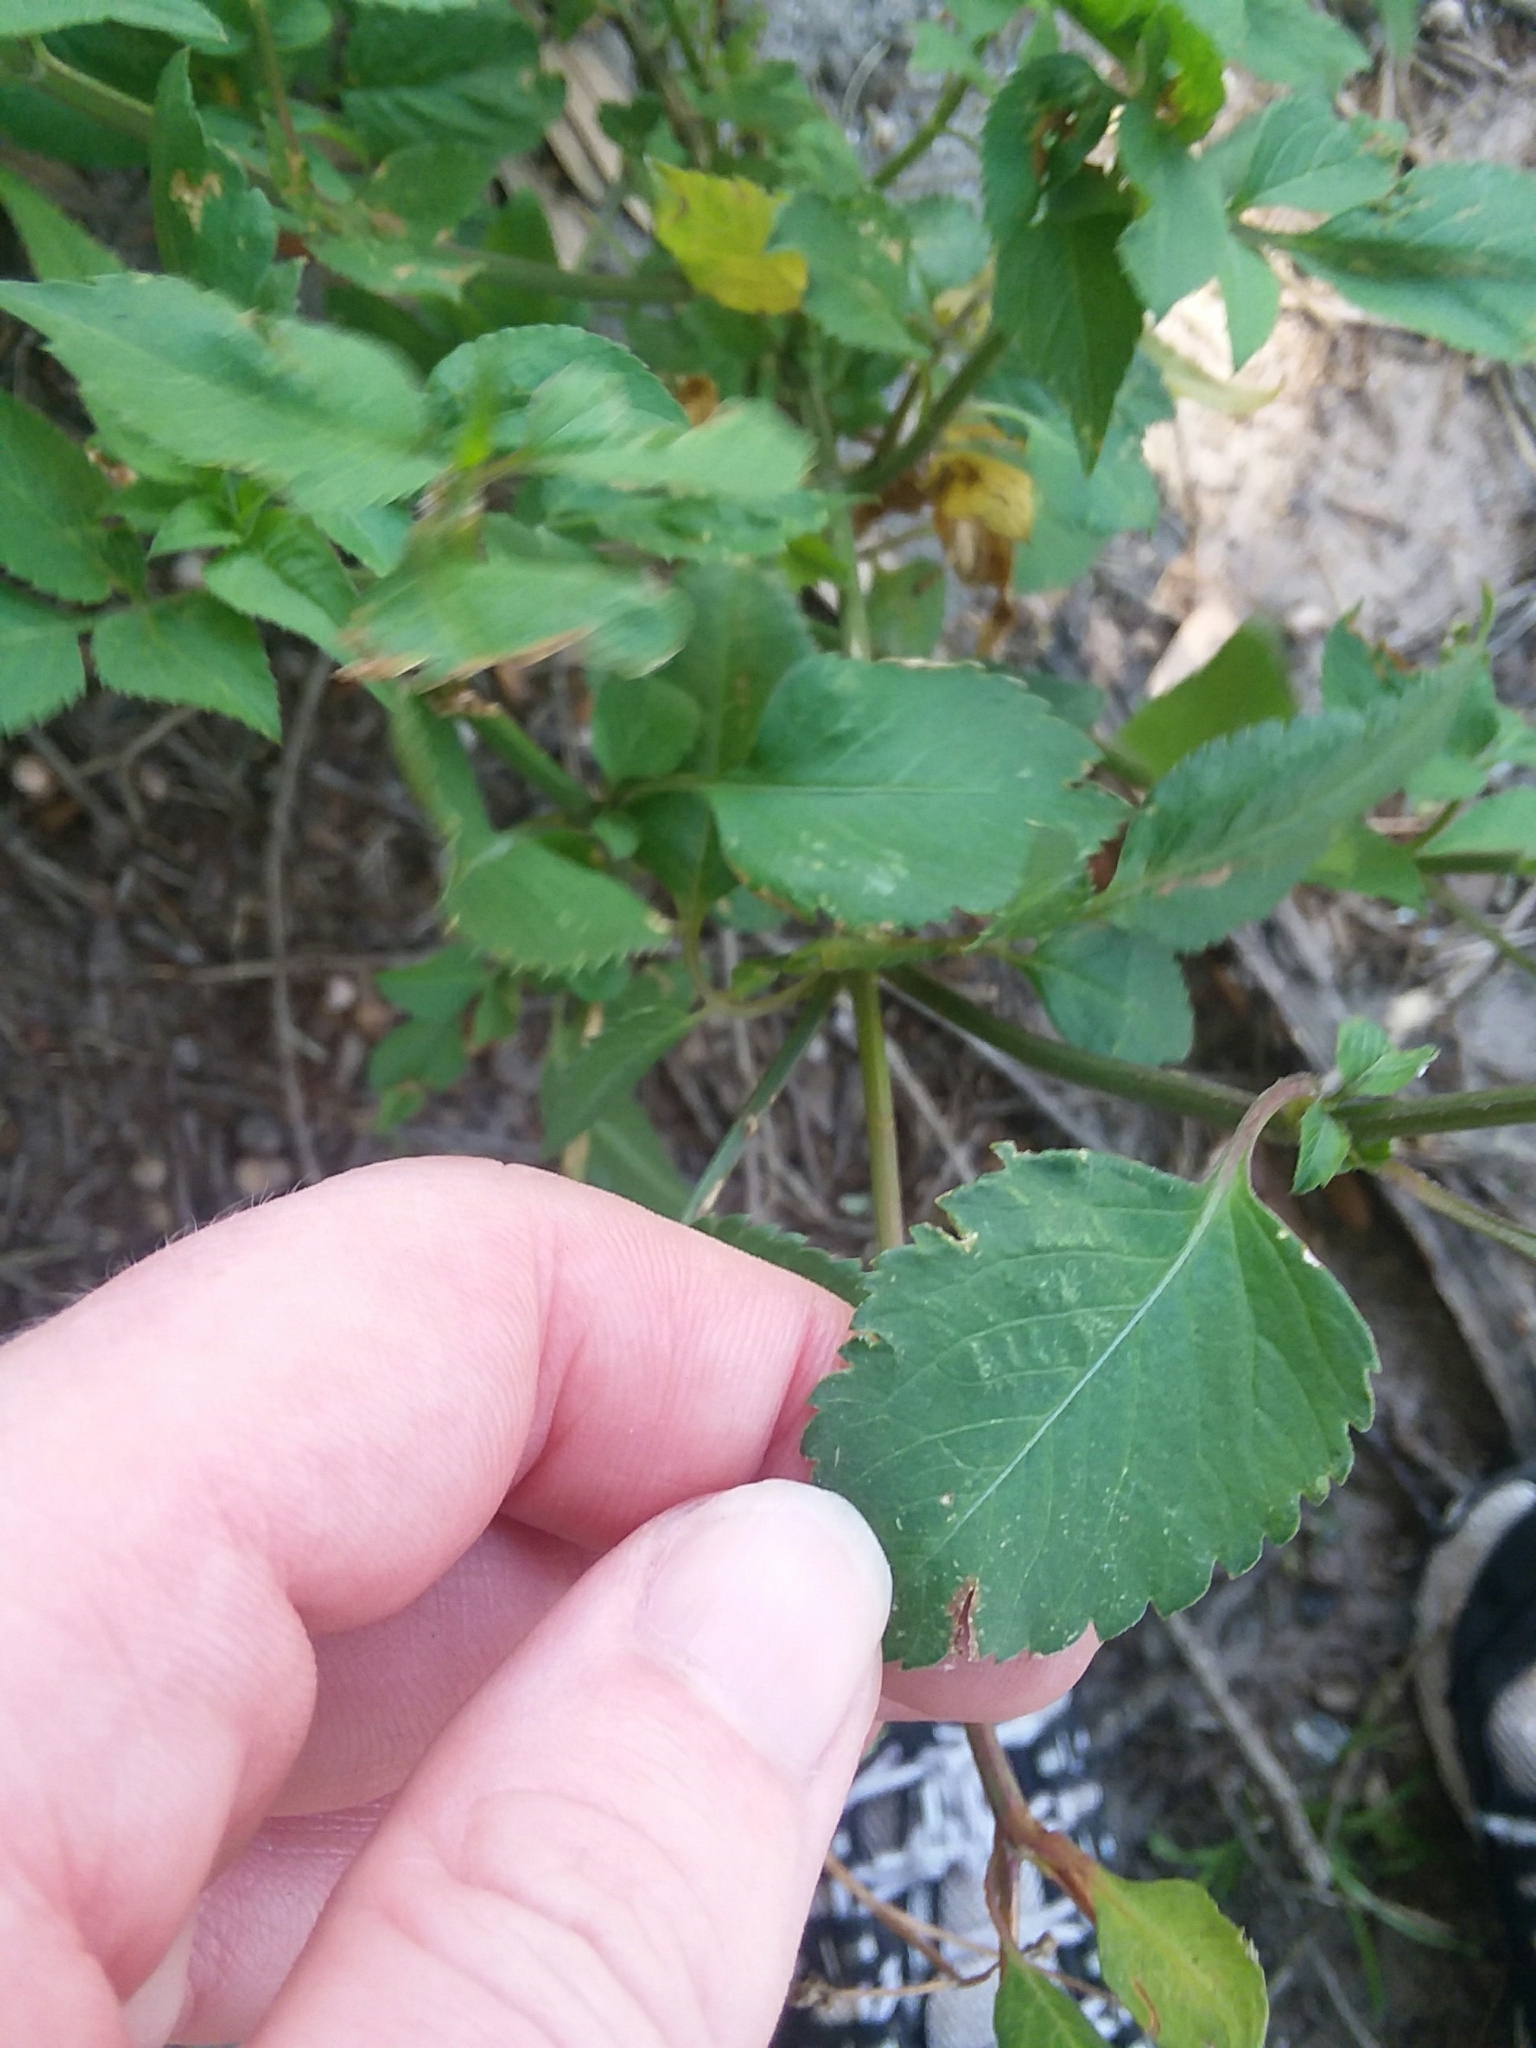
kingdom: Plantae
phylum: Tracheophyta
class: Magnoliopsida
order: Asterales
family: Asteraceae
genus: Bidens
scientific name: Bidens alba
